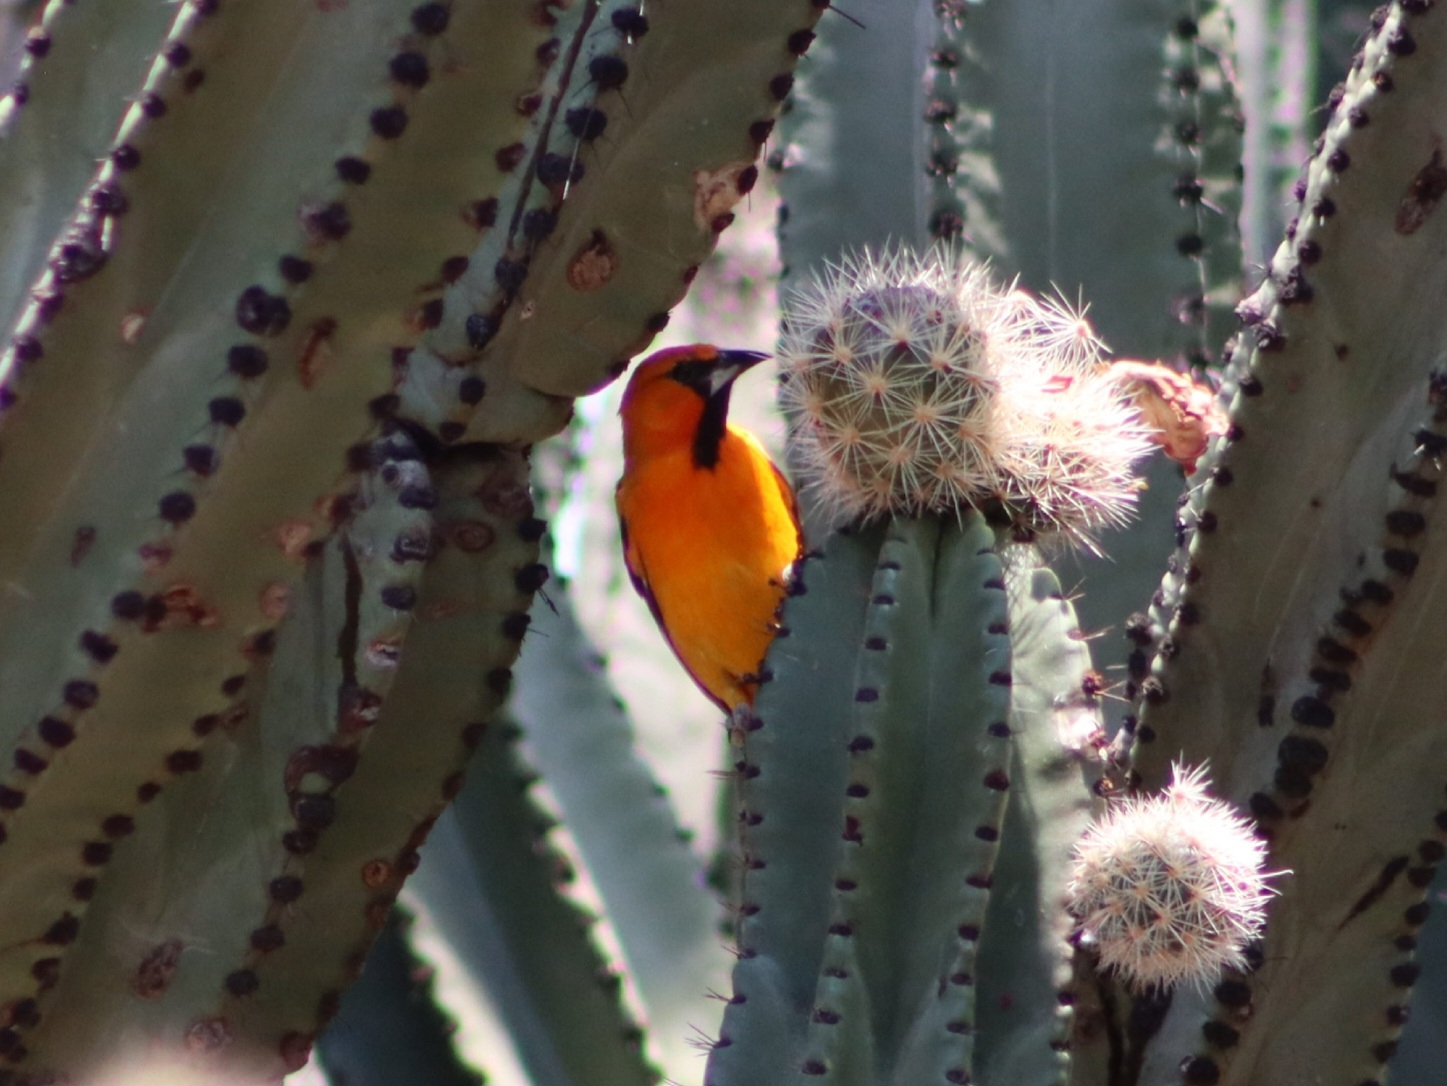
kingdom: Animalia
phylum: Chordata
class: Aves
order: Passeriformes
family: Icteridae
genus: Icterus
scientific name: Icterus pustulatus
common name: Streak-backed oriole
